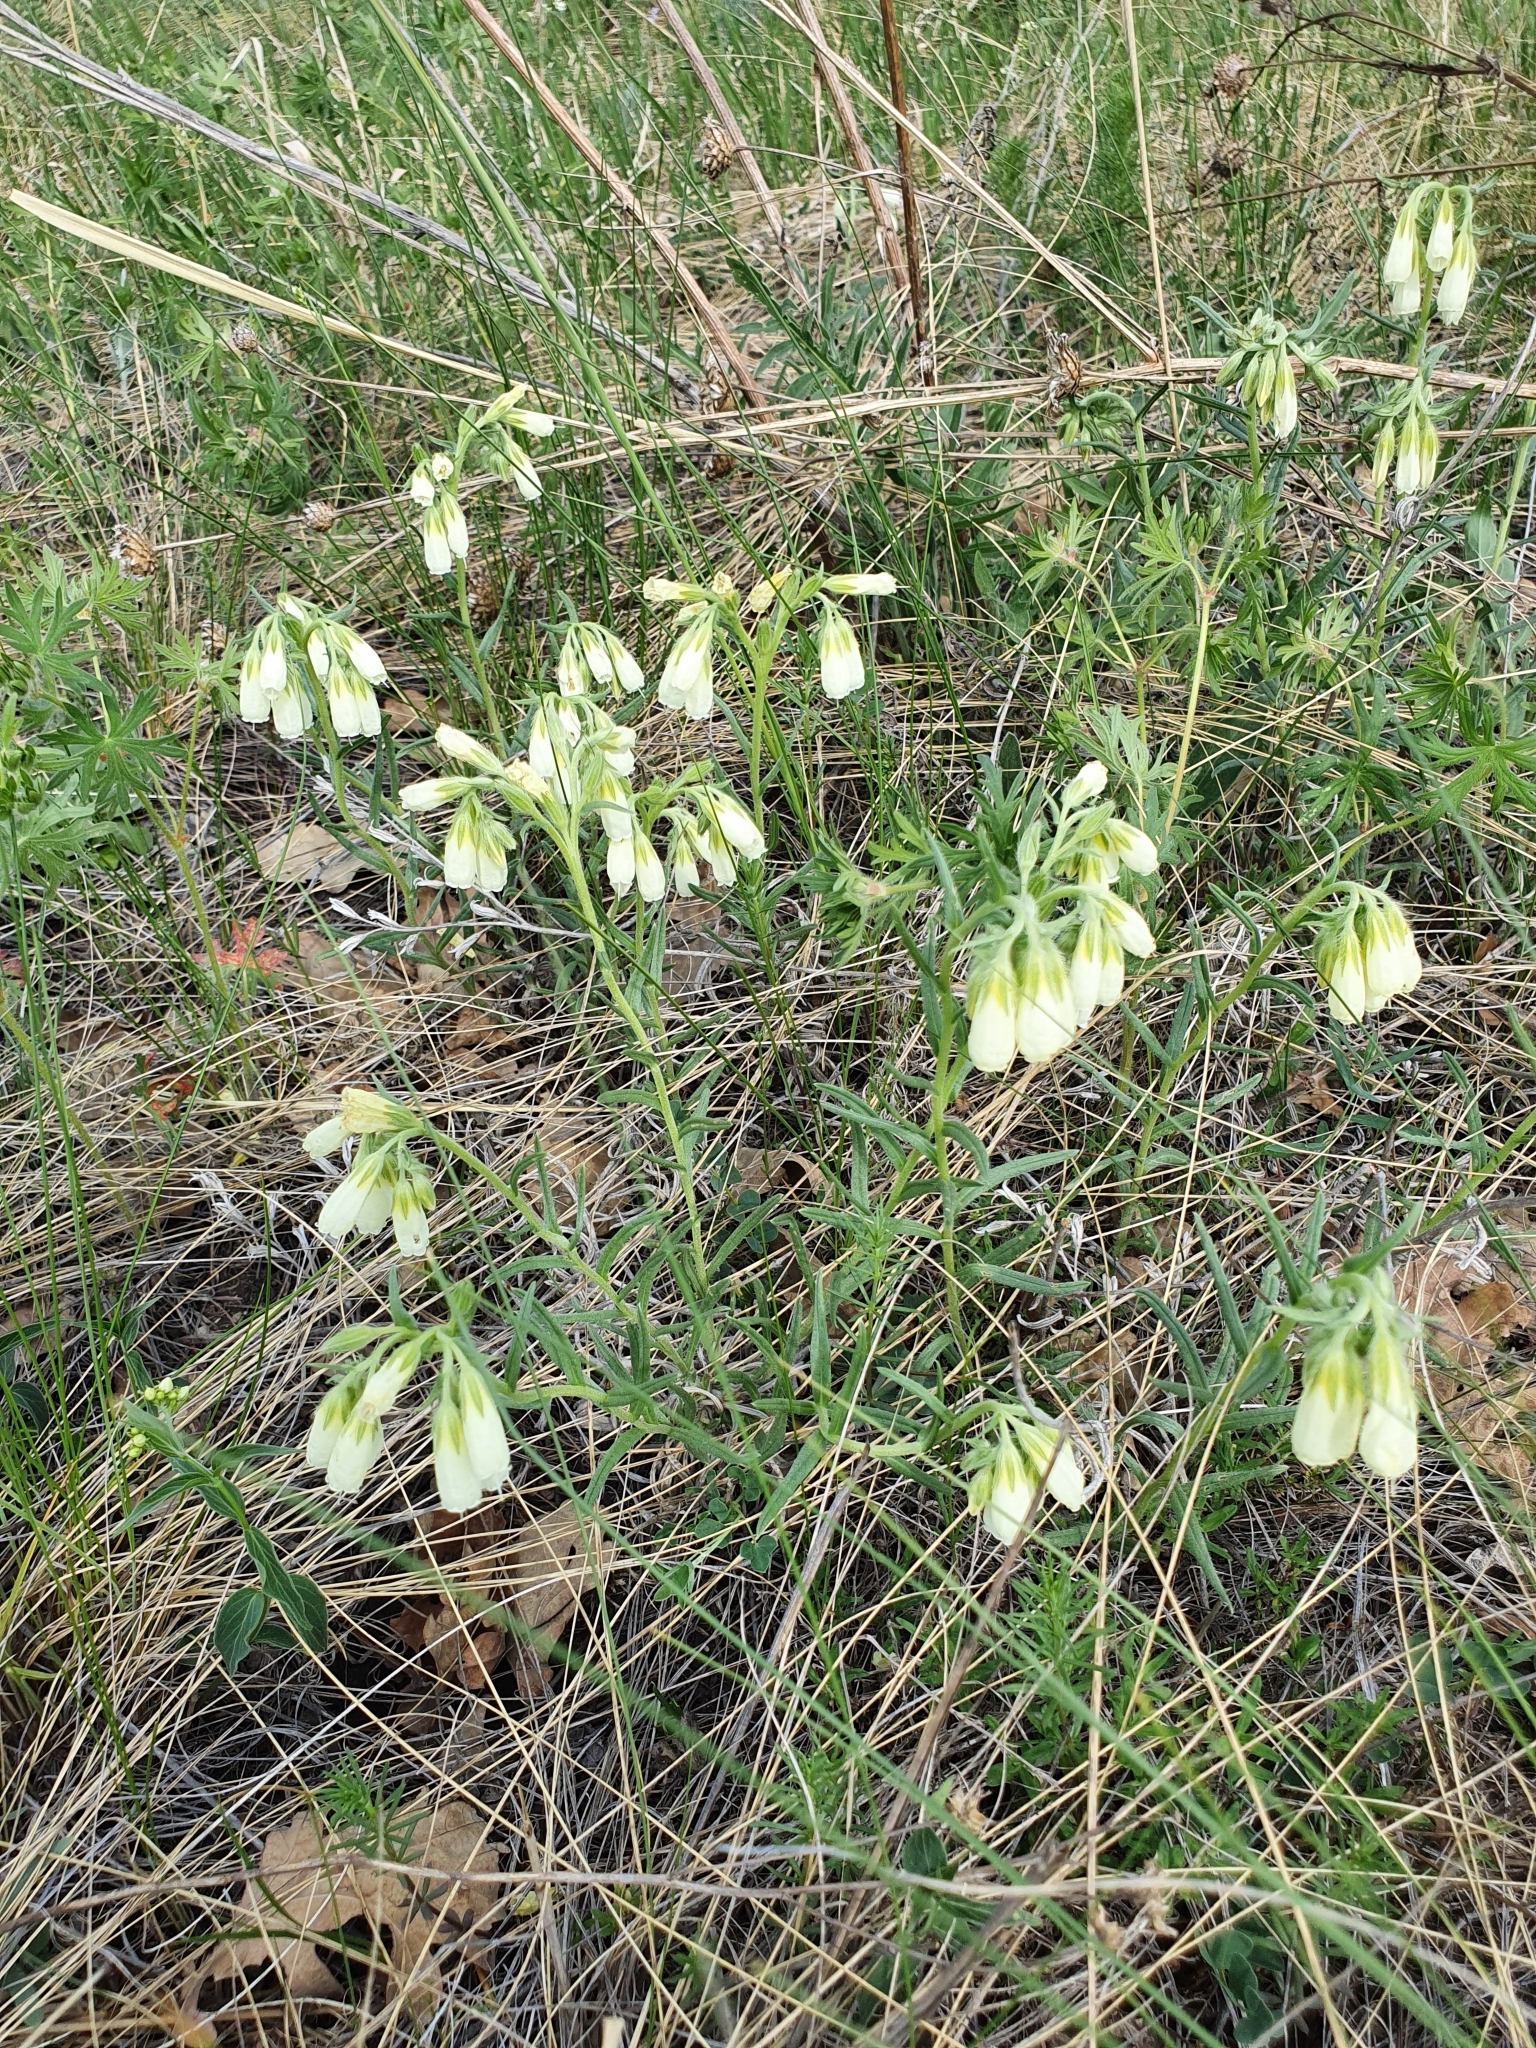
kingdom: Plantae
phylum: Tracheophyta
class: Magnoliopsida
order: Boraginales
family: Boraginaceae
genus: Onosma
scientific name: Onosma simplicissima
